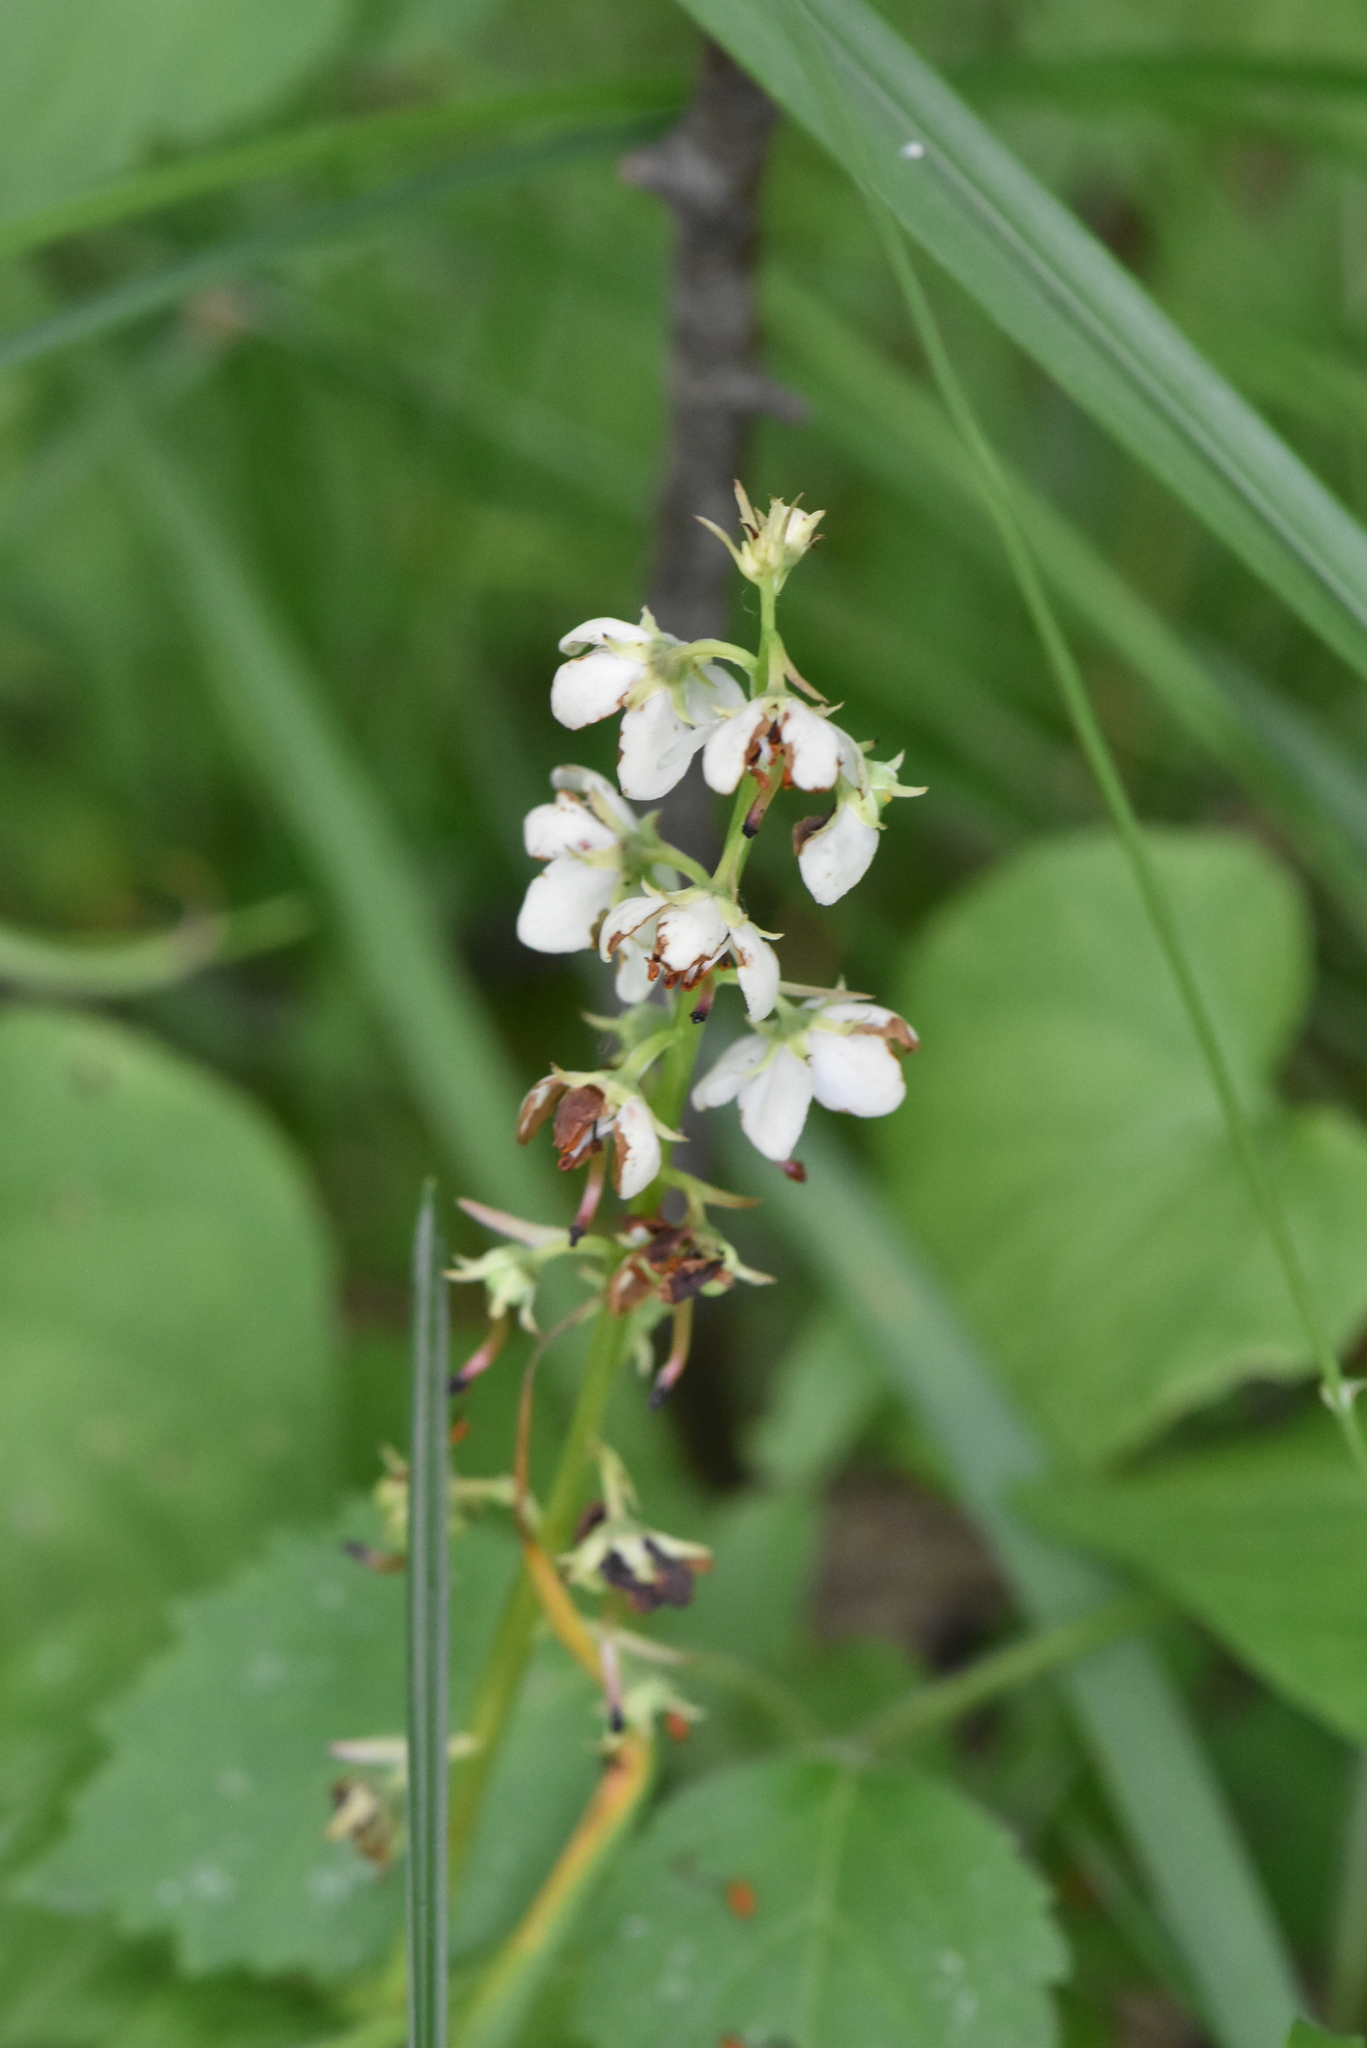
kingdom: Plantae
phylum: Tracheophyta
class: Magnoliopsida
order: Ericales
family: Ericaceae
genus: Pyrola
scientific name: Pyrola rotundifolia
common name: Round-leaved wintergreen
